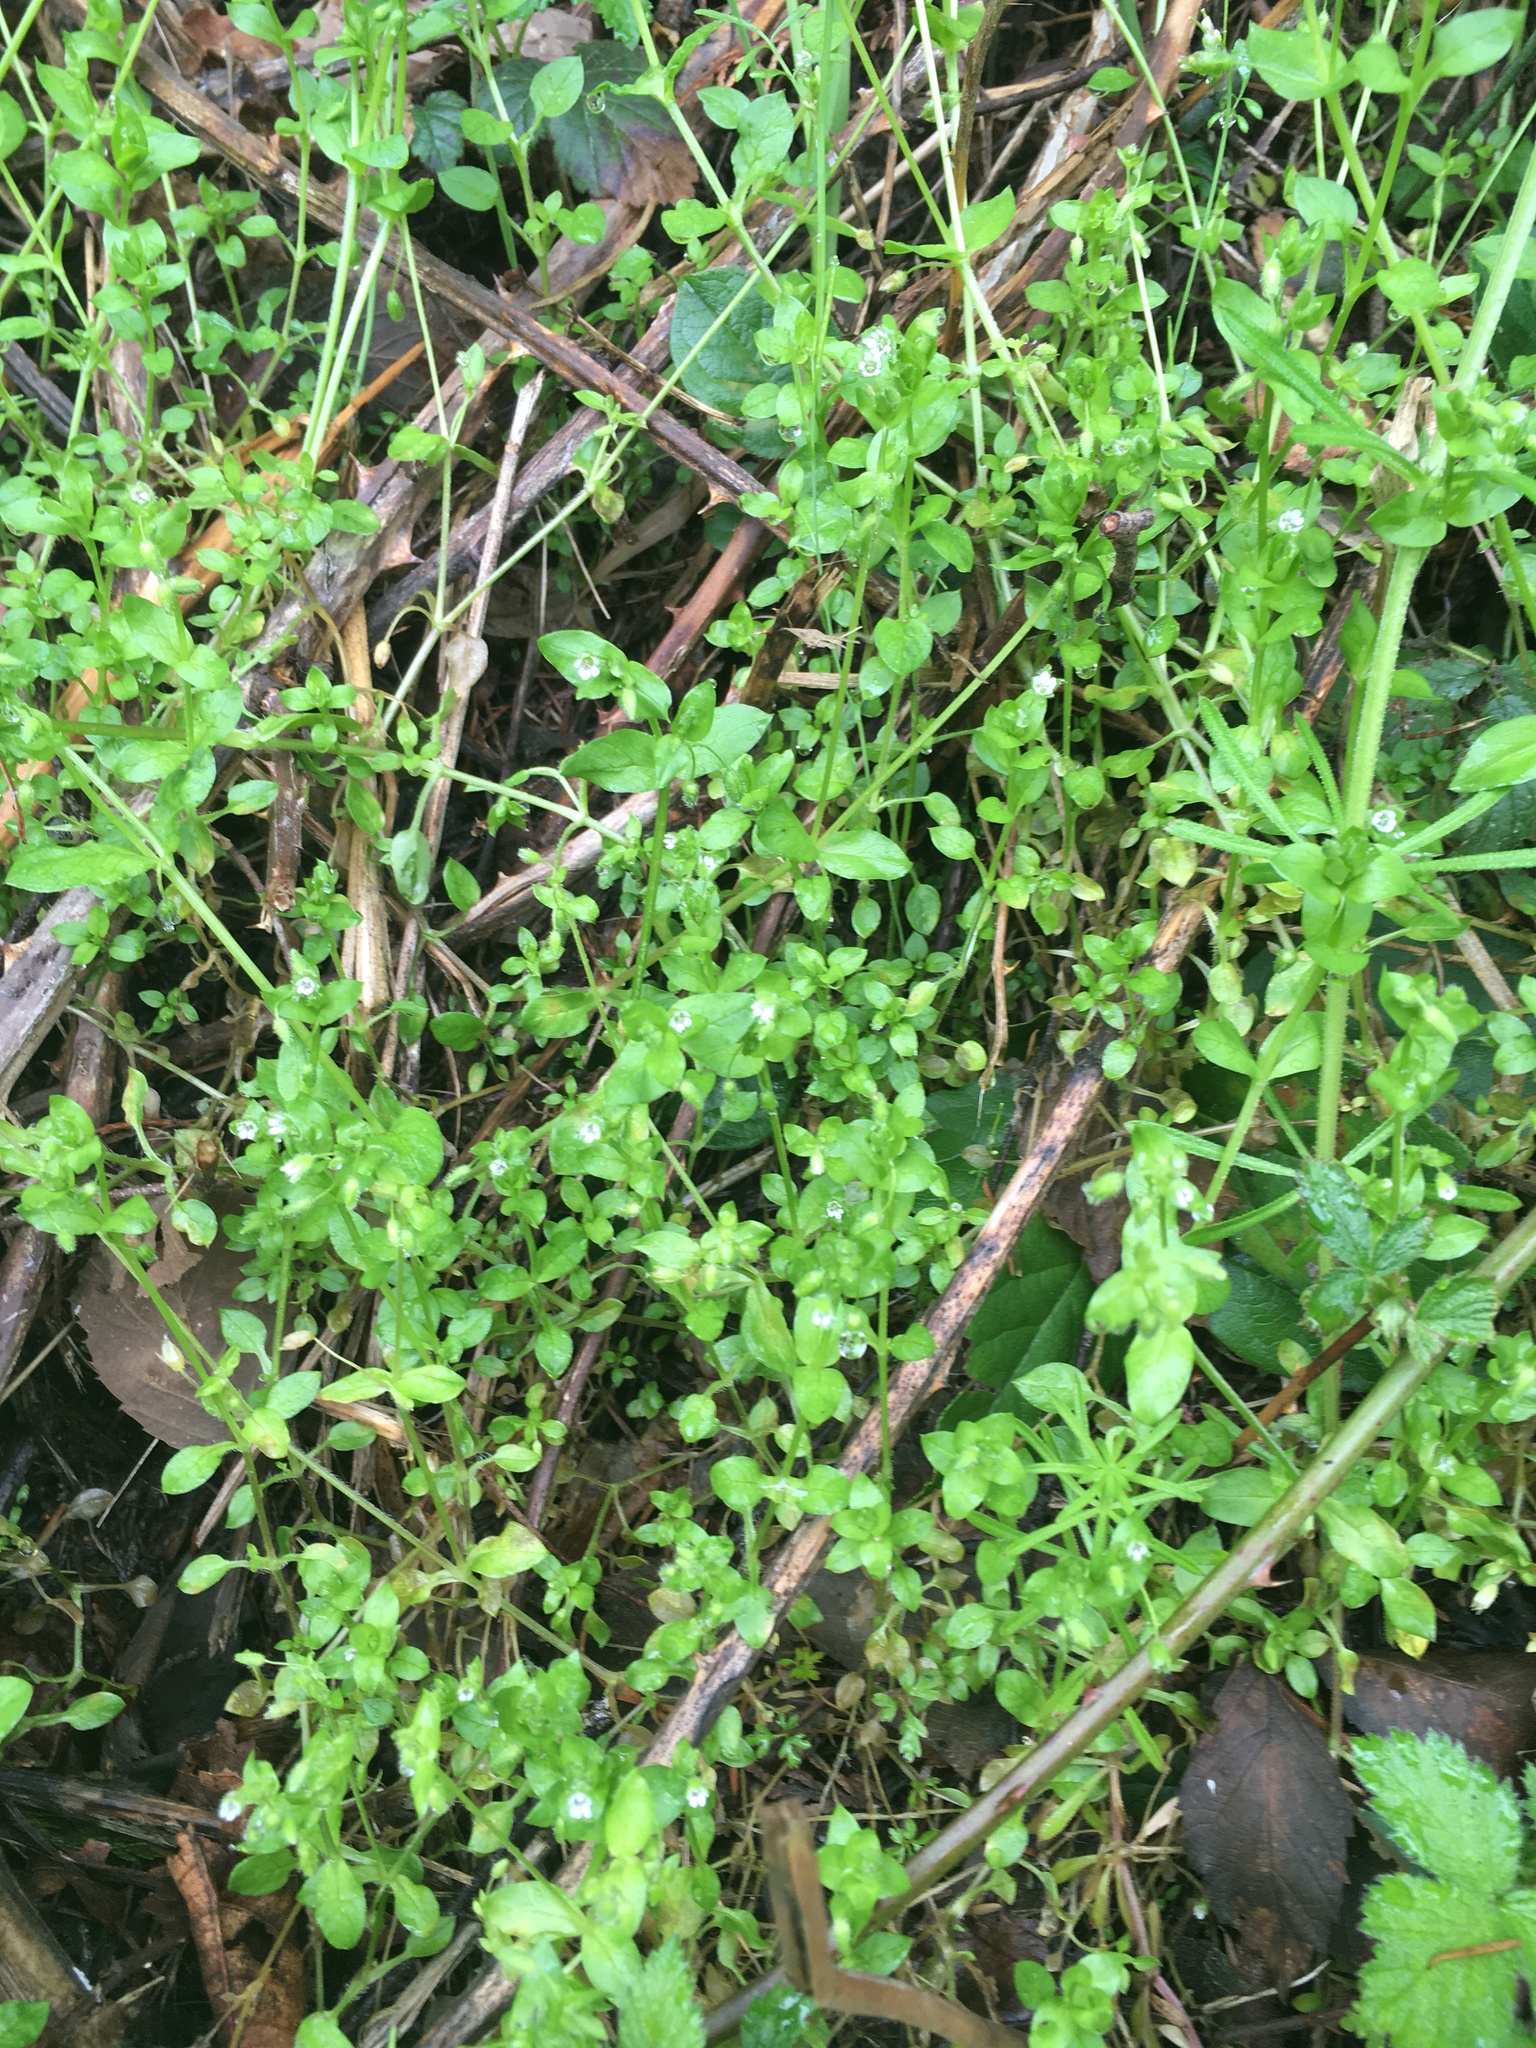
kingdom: Plantae
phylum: Tracheophyta
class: Magnoliopsida
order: Caryophyllales
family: Caryophyllaceae
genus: Stellaria
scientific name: Stellaria media
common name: Common chickweed
